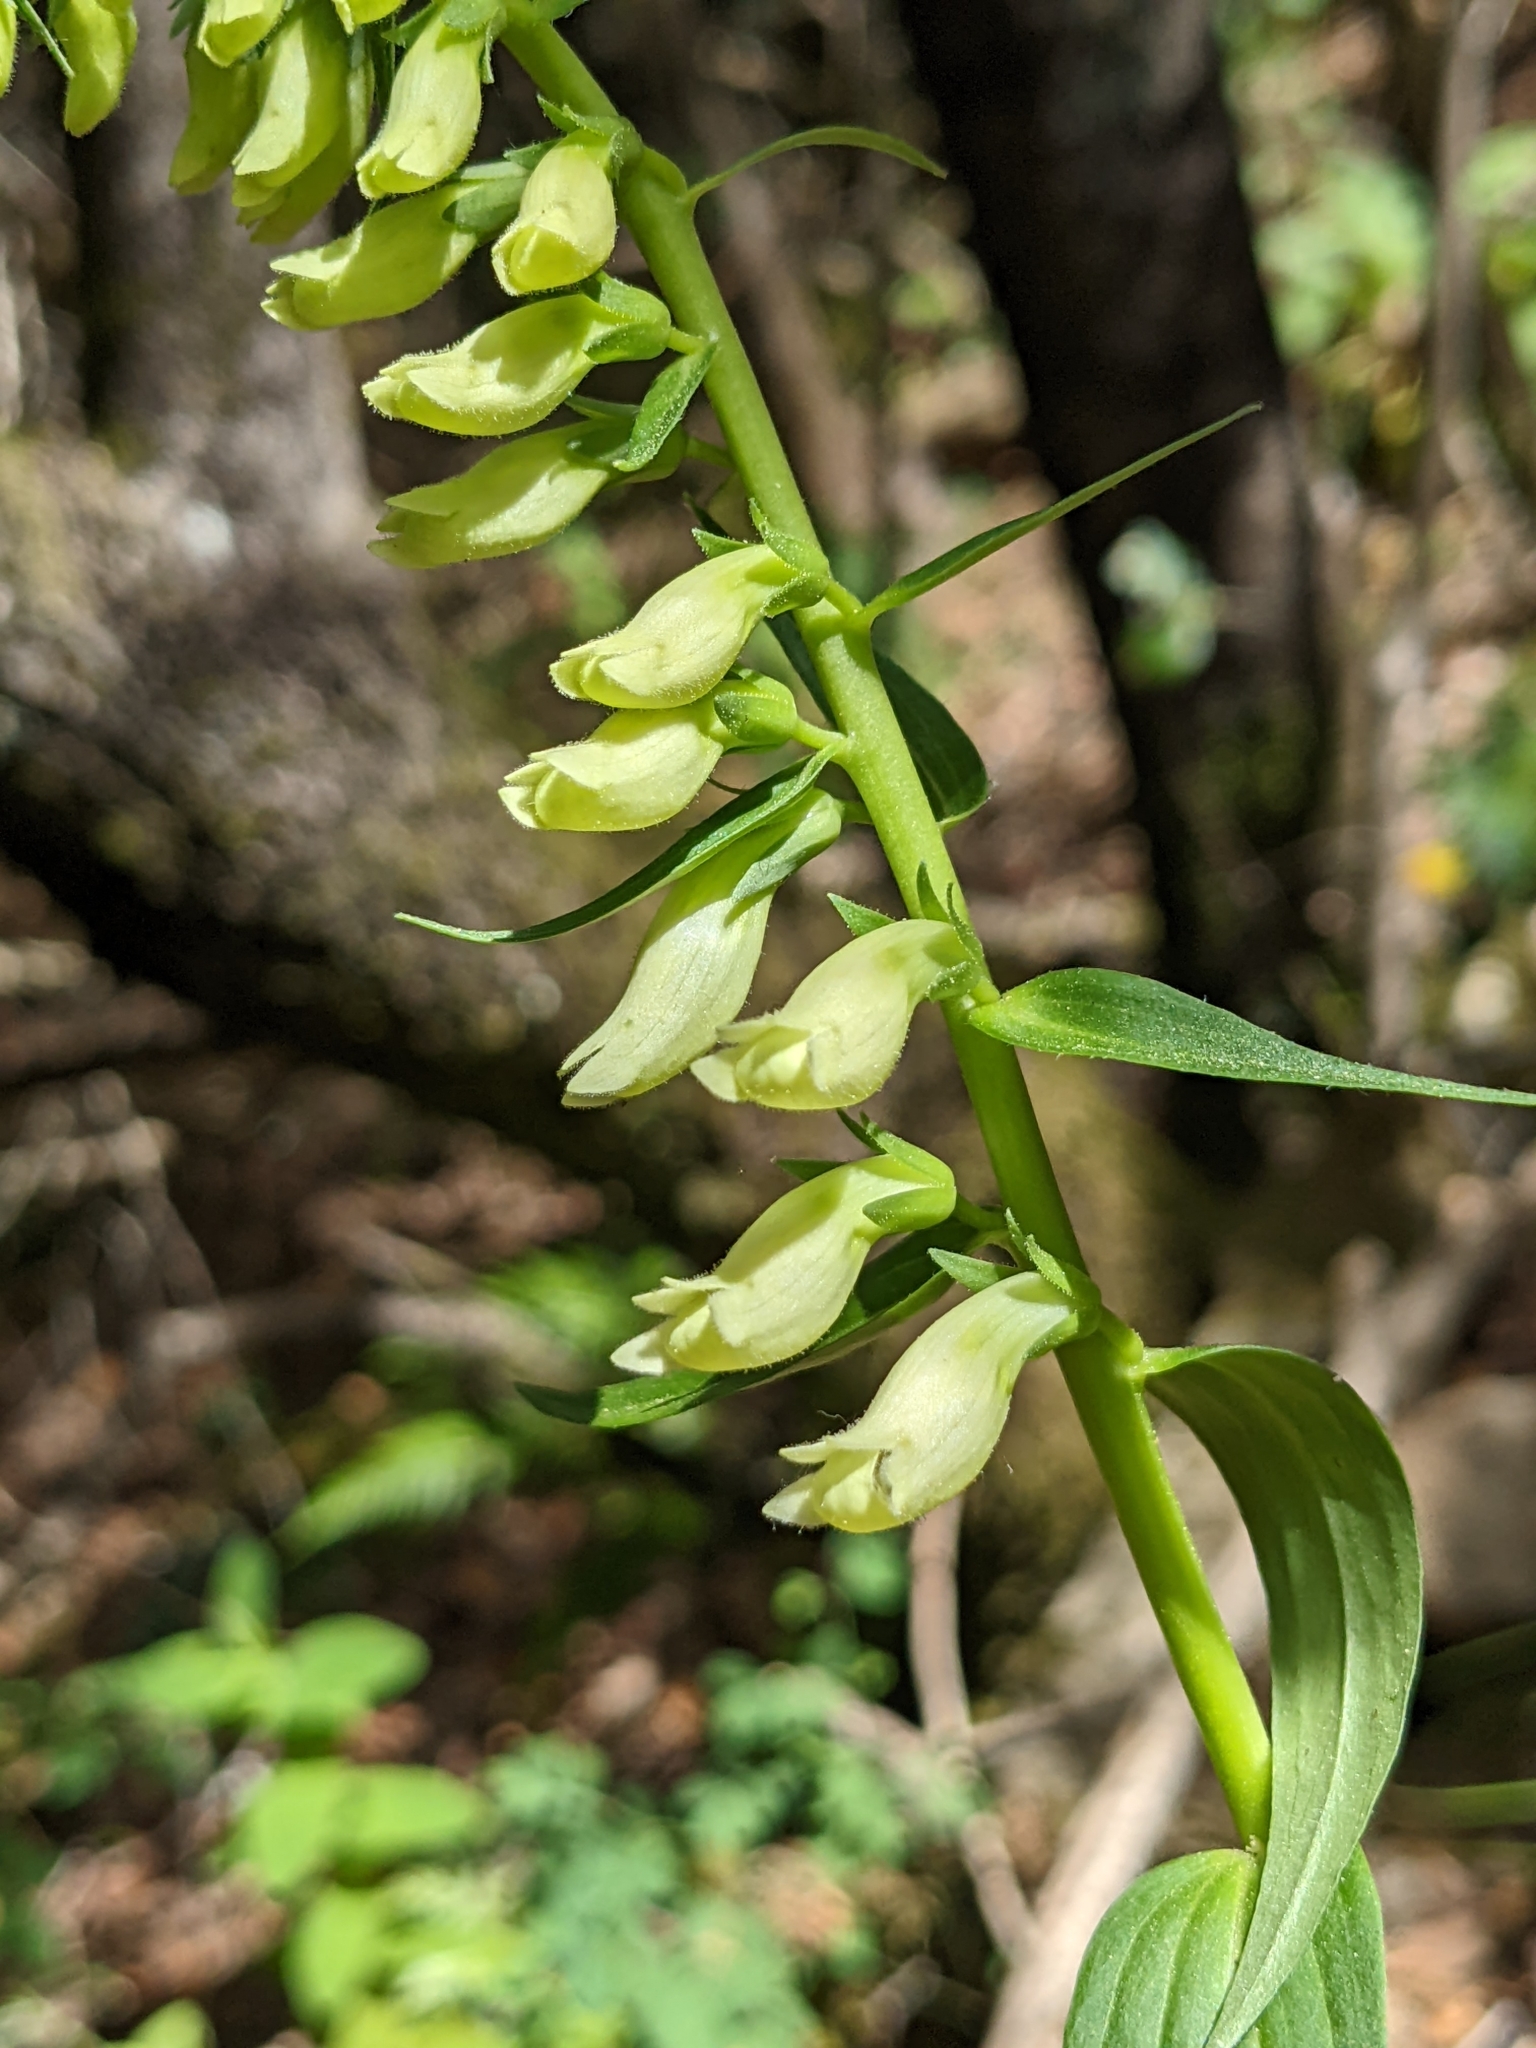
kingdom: Plantae
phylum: Tracheophyta
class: Magnoliopsida
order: Lamiales
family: Plantaginaceae
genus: Digitalis
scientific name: Digitalis lutea
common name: Straw foxglove
